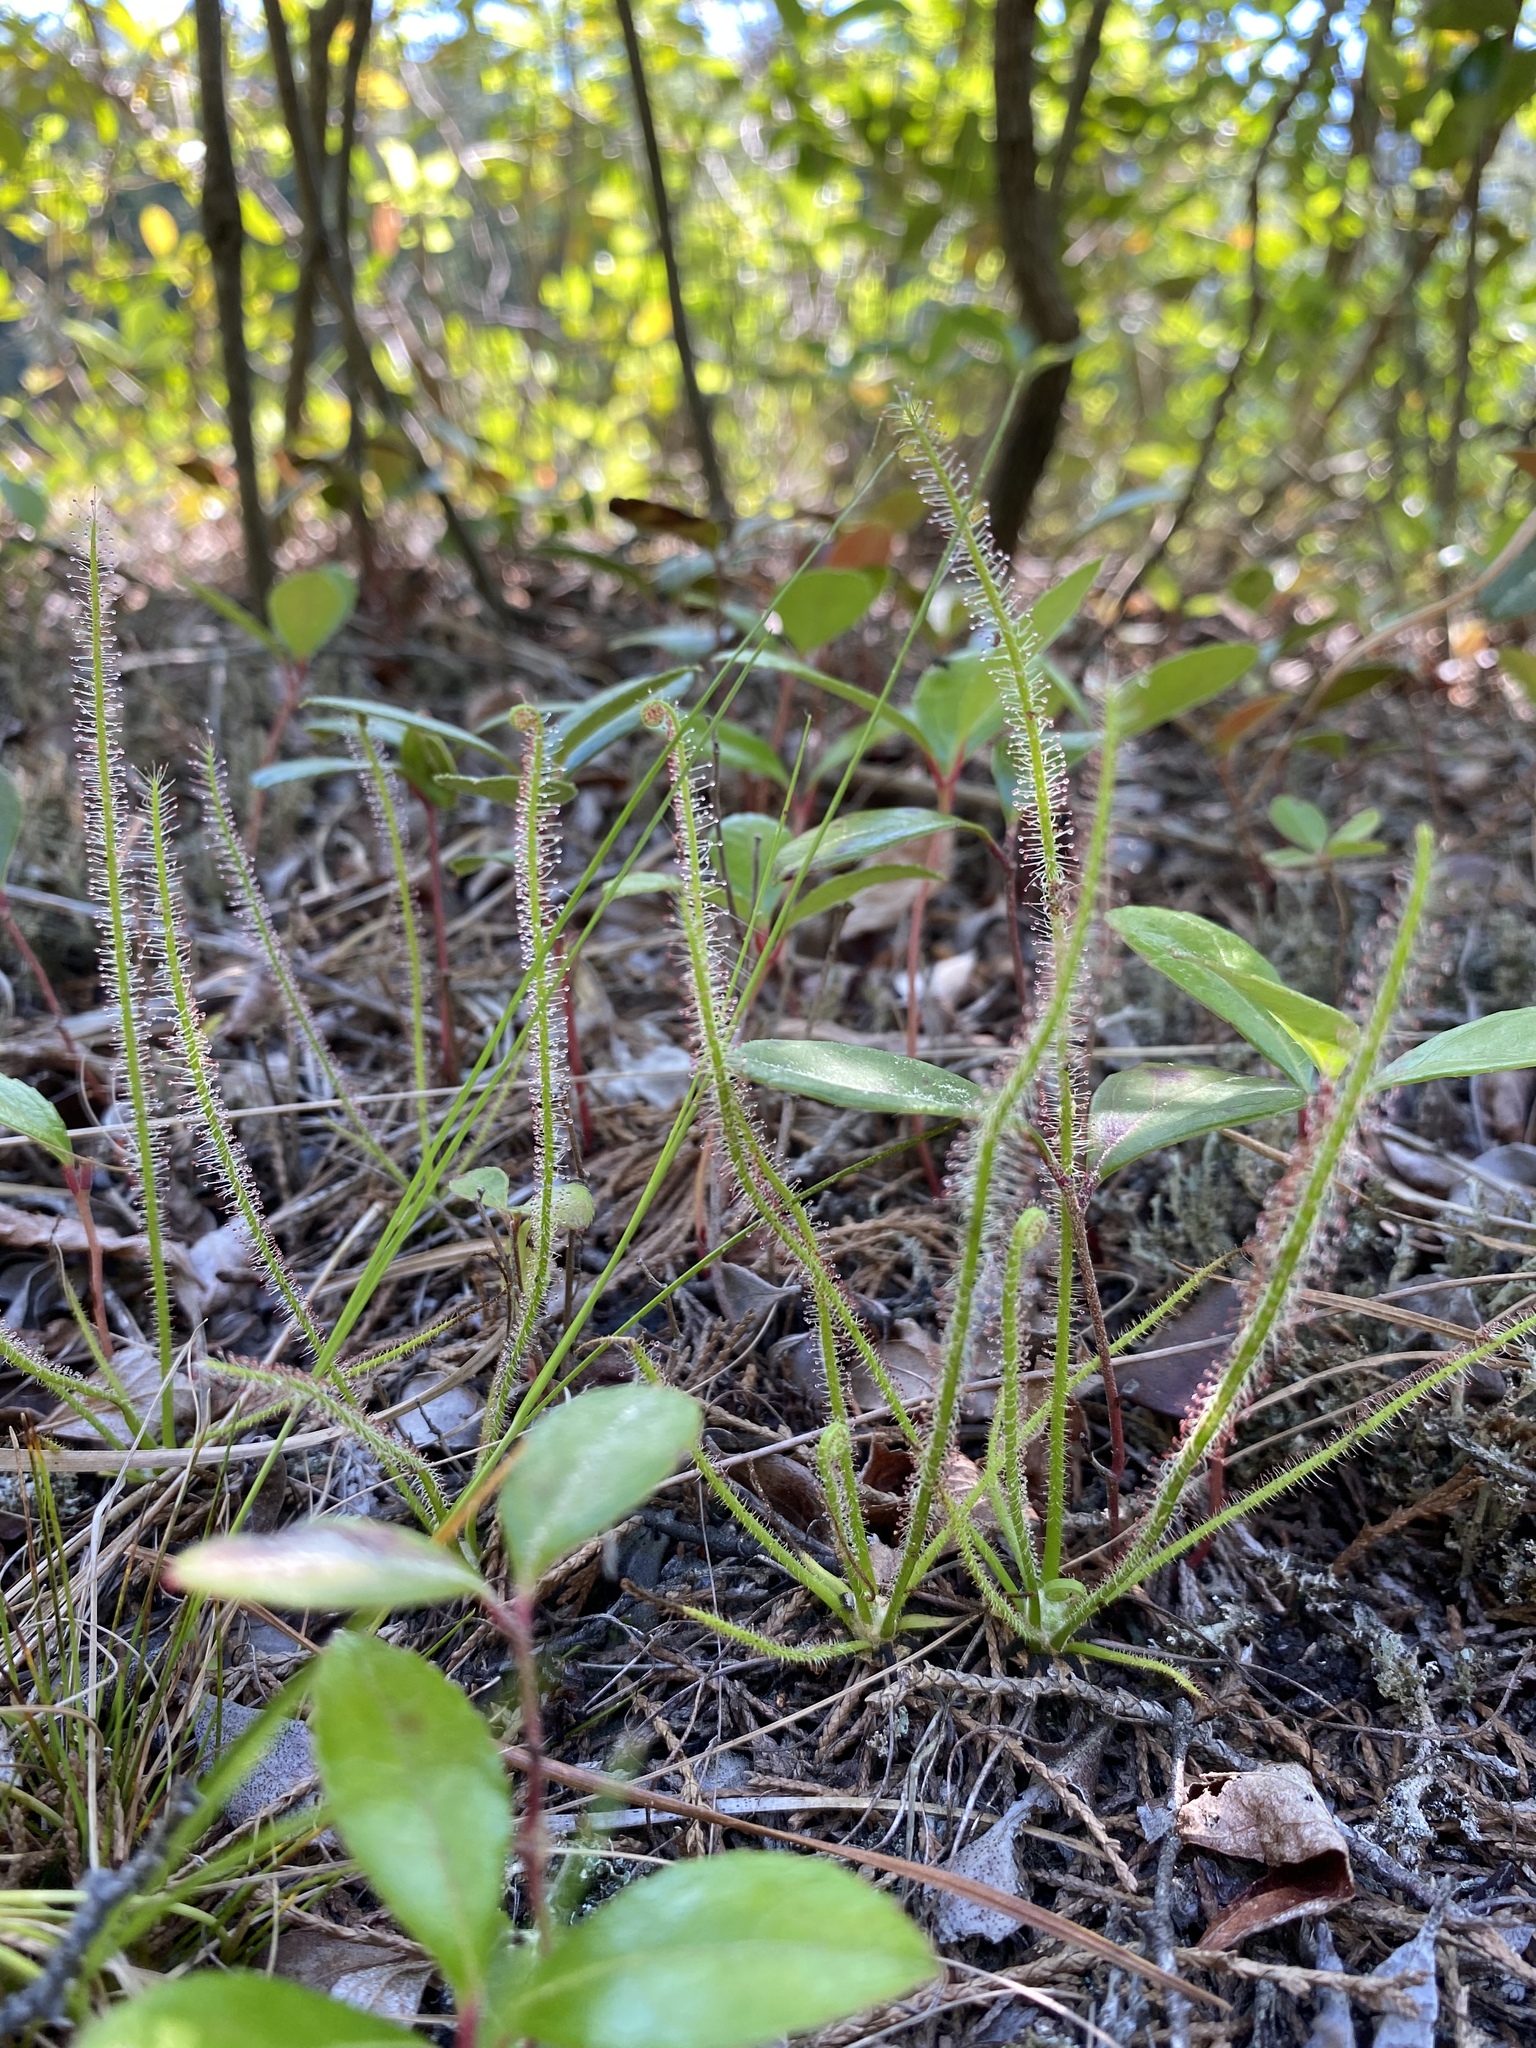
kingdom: Plantae
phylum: Tracheophyta
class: Magnoliopsida
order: Caryophyllales
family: Droseraceae
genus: Drosera
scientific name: Drosera filiformis
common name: Dew-thread
